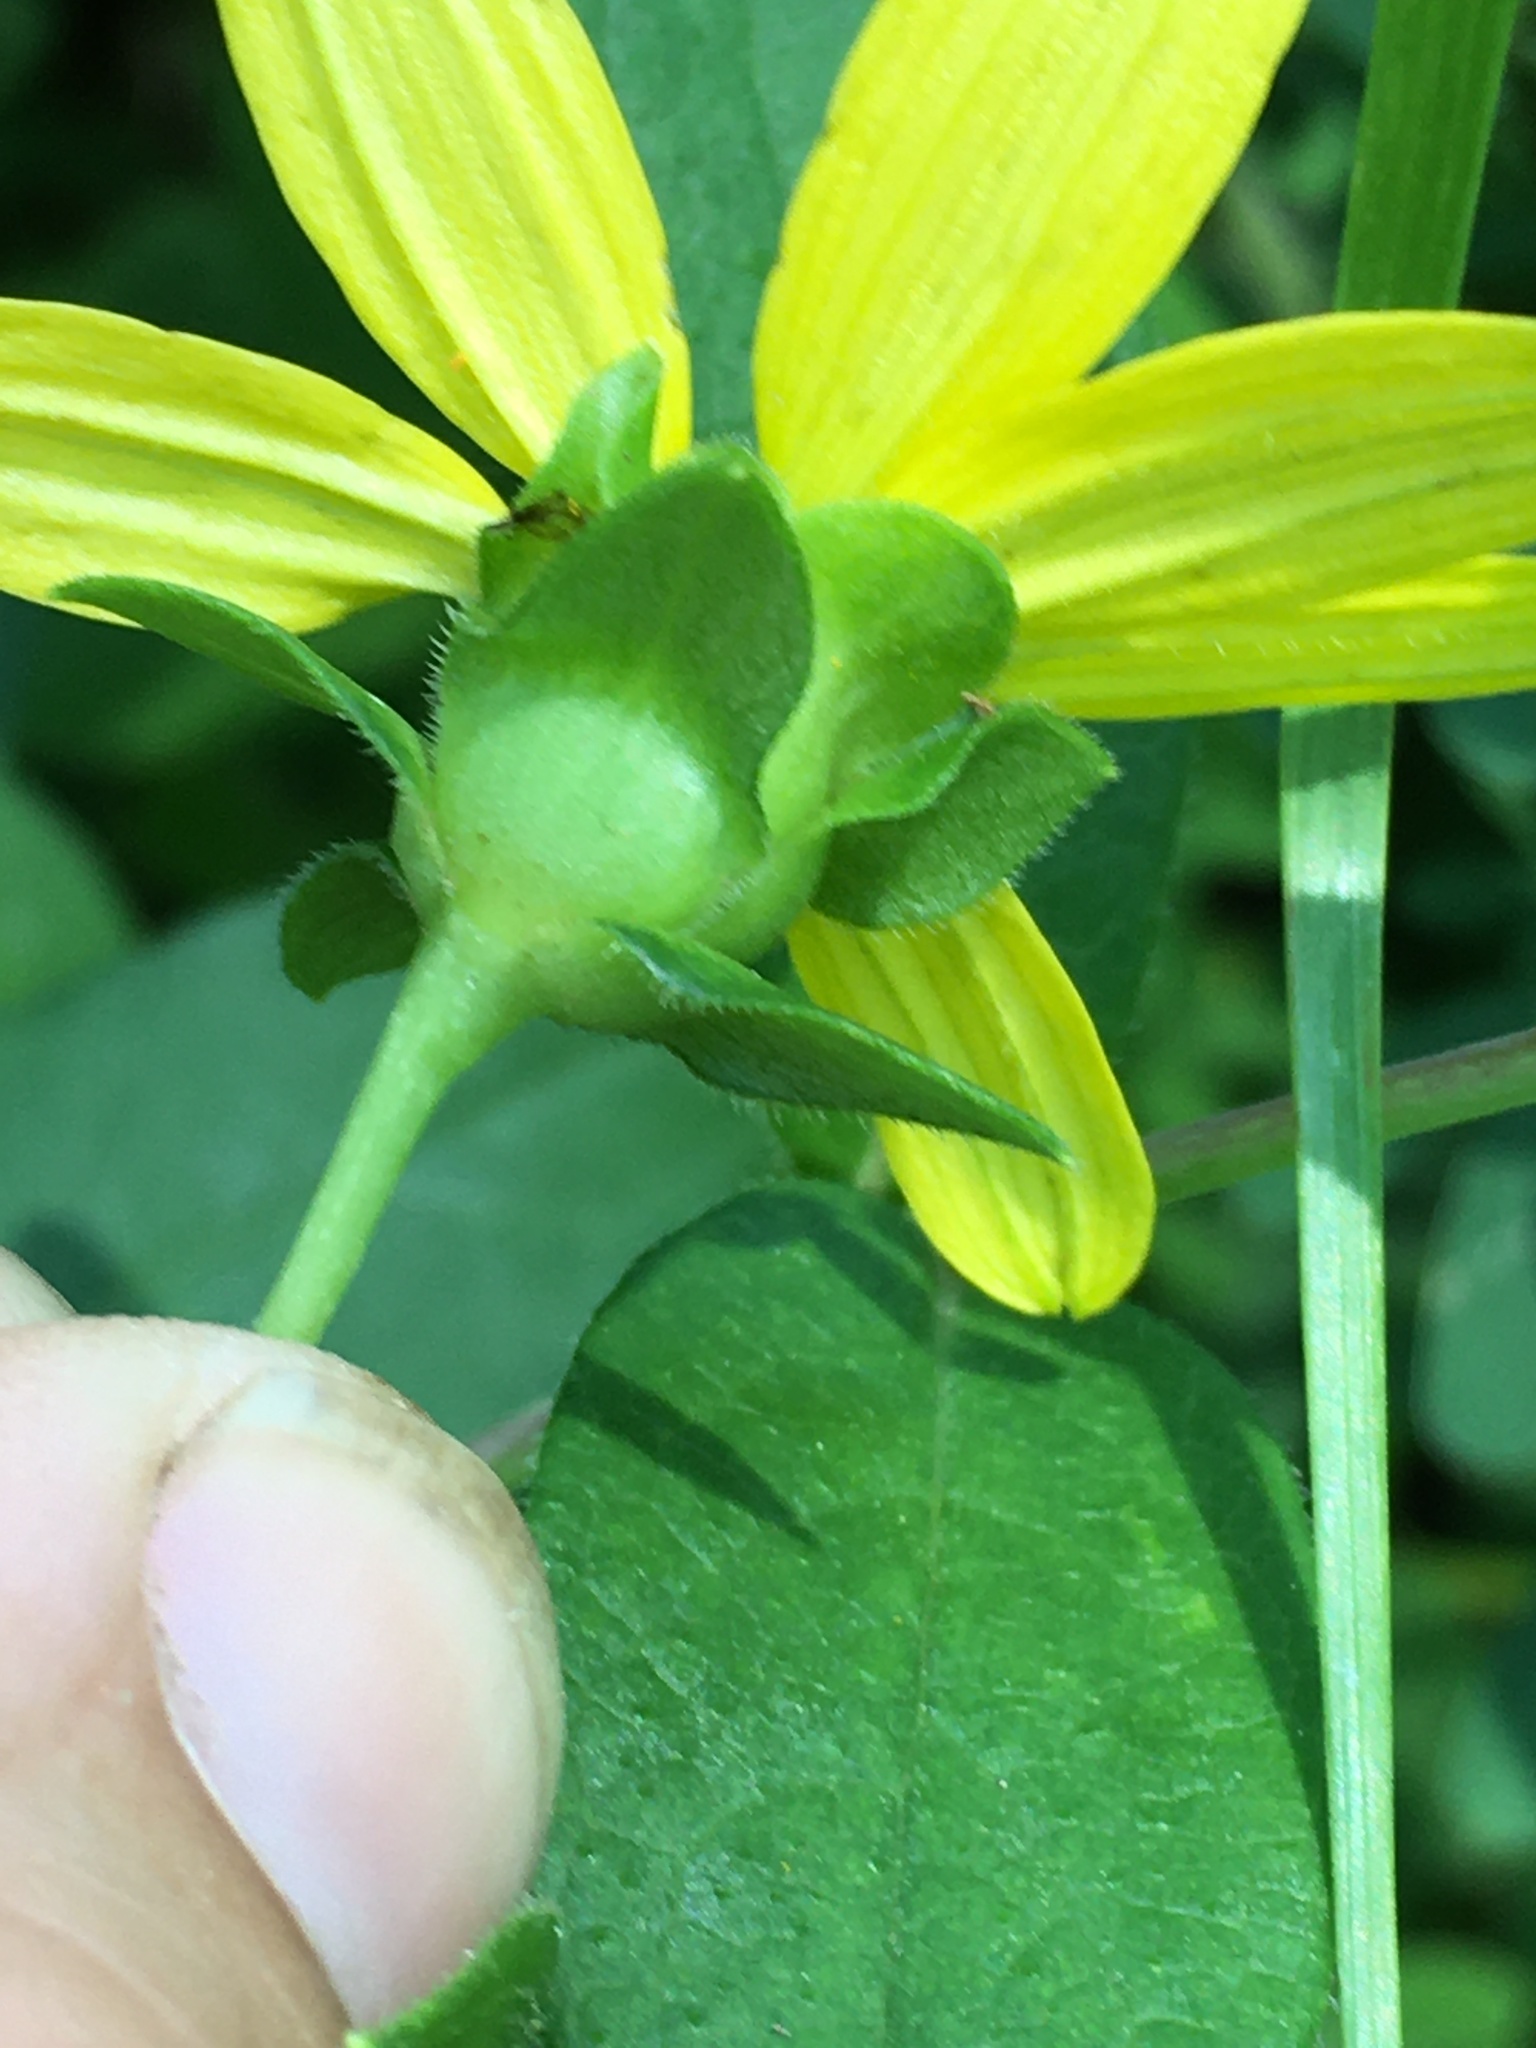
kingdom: Plantae
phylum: Tracheophyta
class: Magnoliopsida
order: Asterales
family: Asteraceae
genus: Silphium
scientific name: Silphium asteriscus
